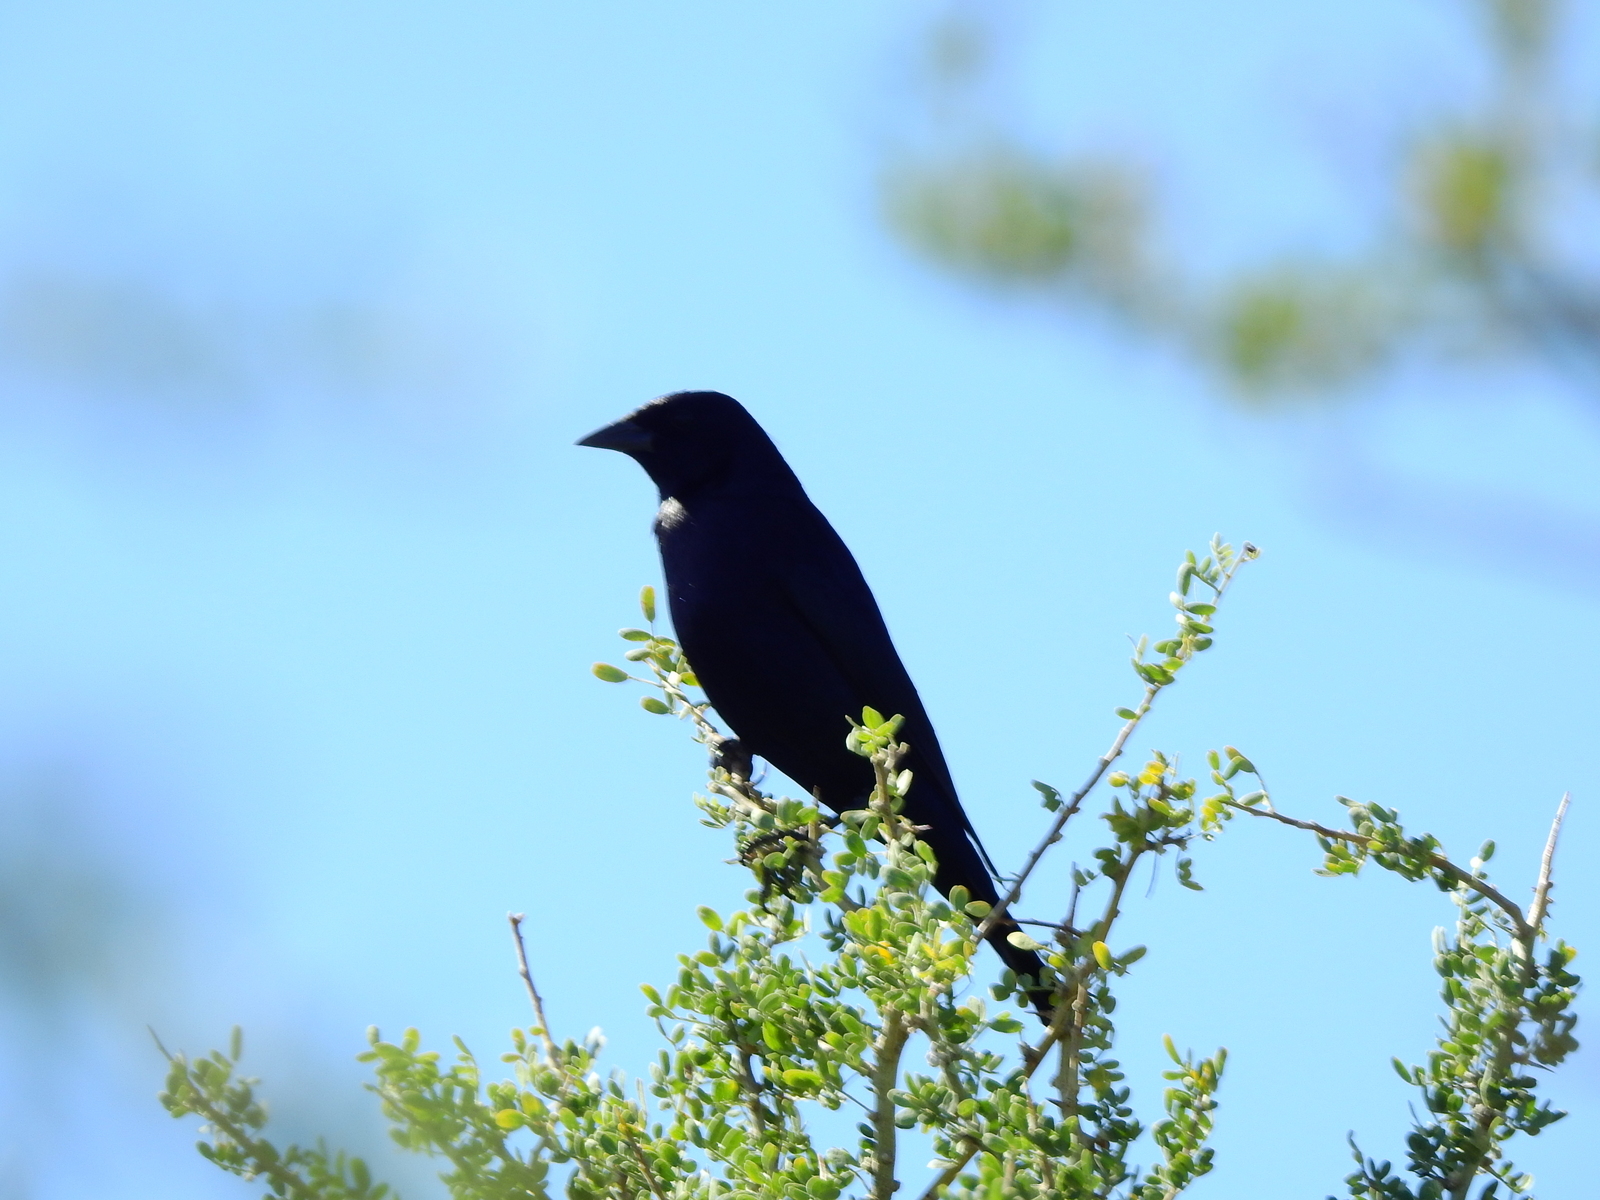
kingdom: Animalia
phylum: Chordata
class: Aves
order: Passeriformes
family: Icteridae
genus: Molothrus
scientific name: Molothrus bonariensis
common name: Shiny cowbird
